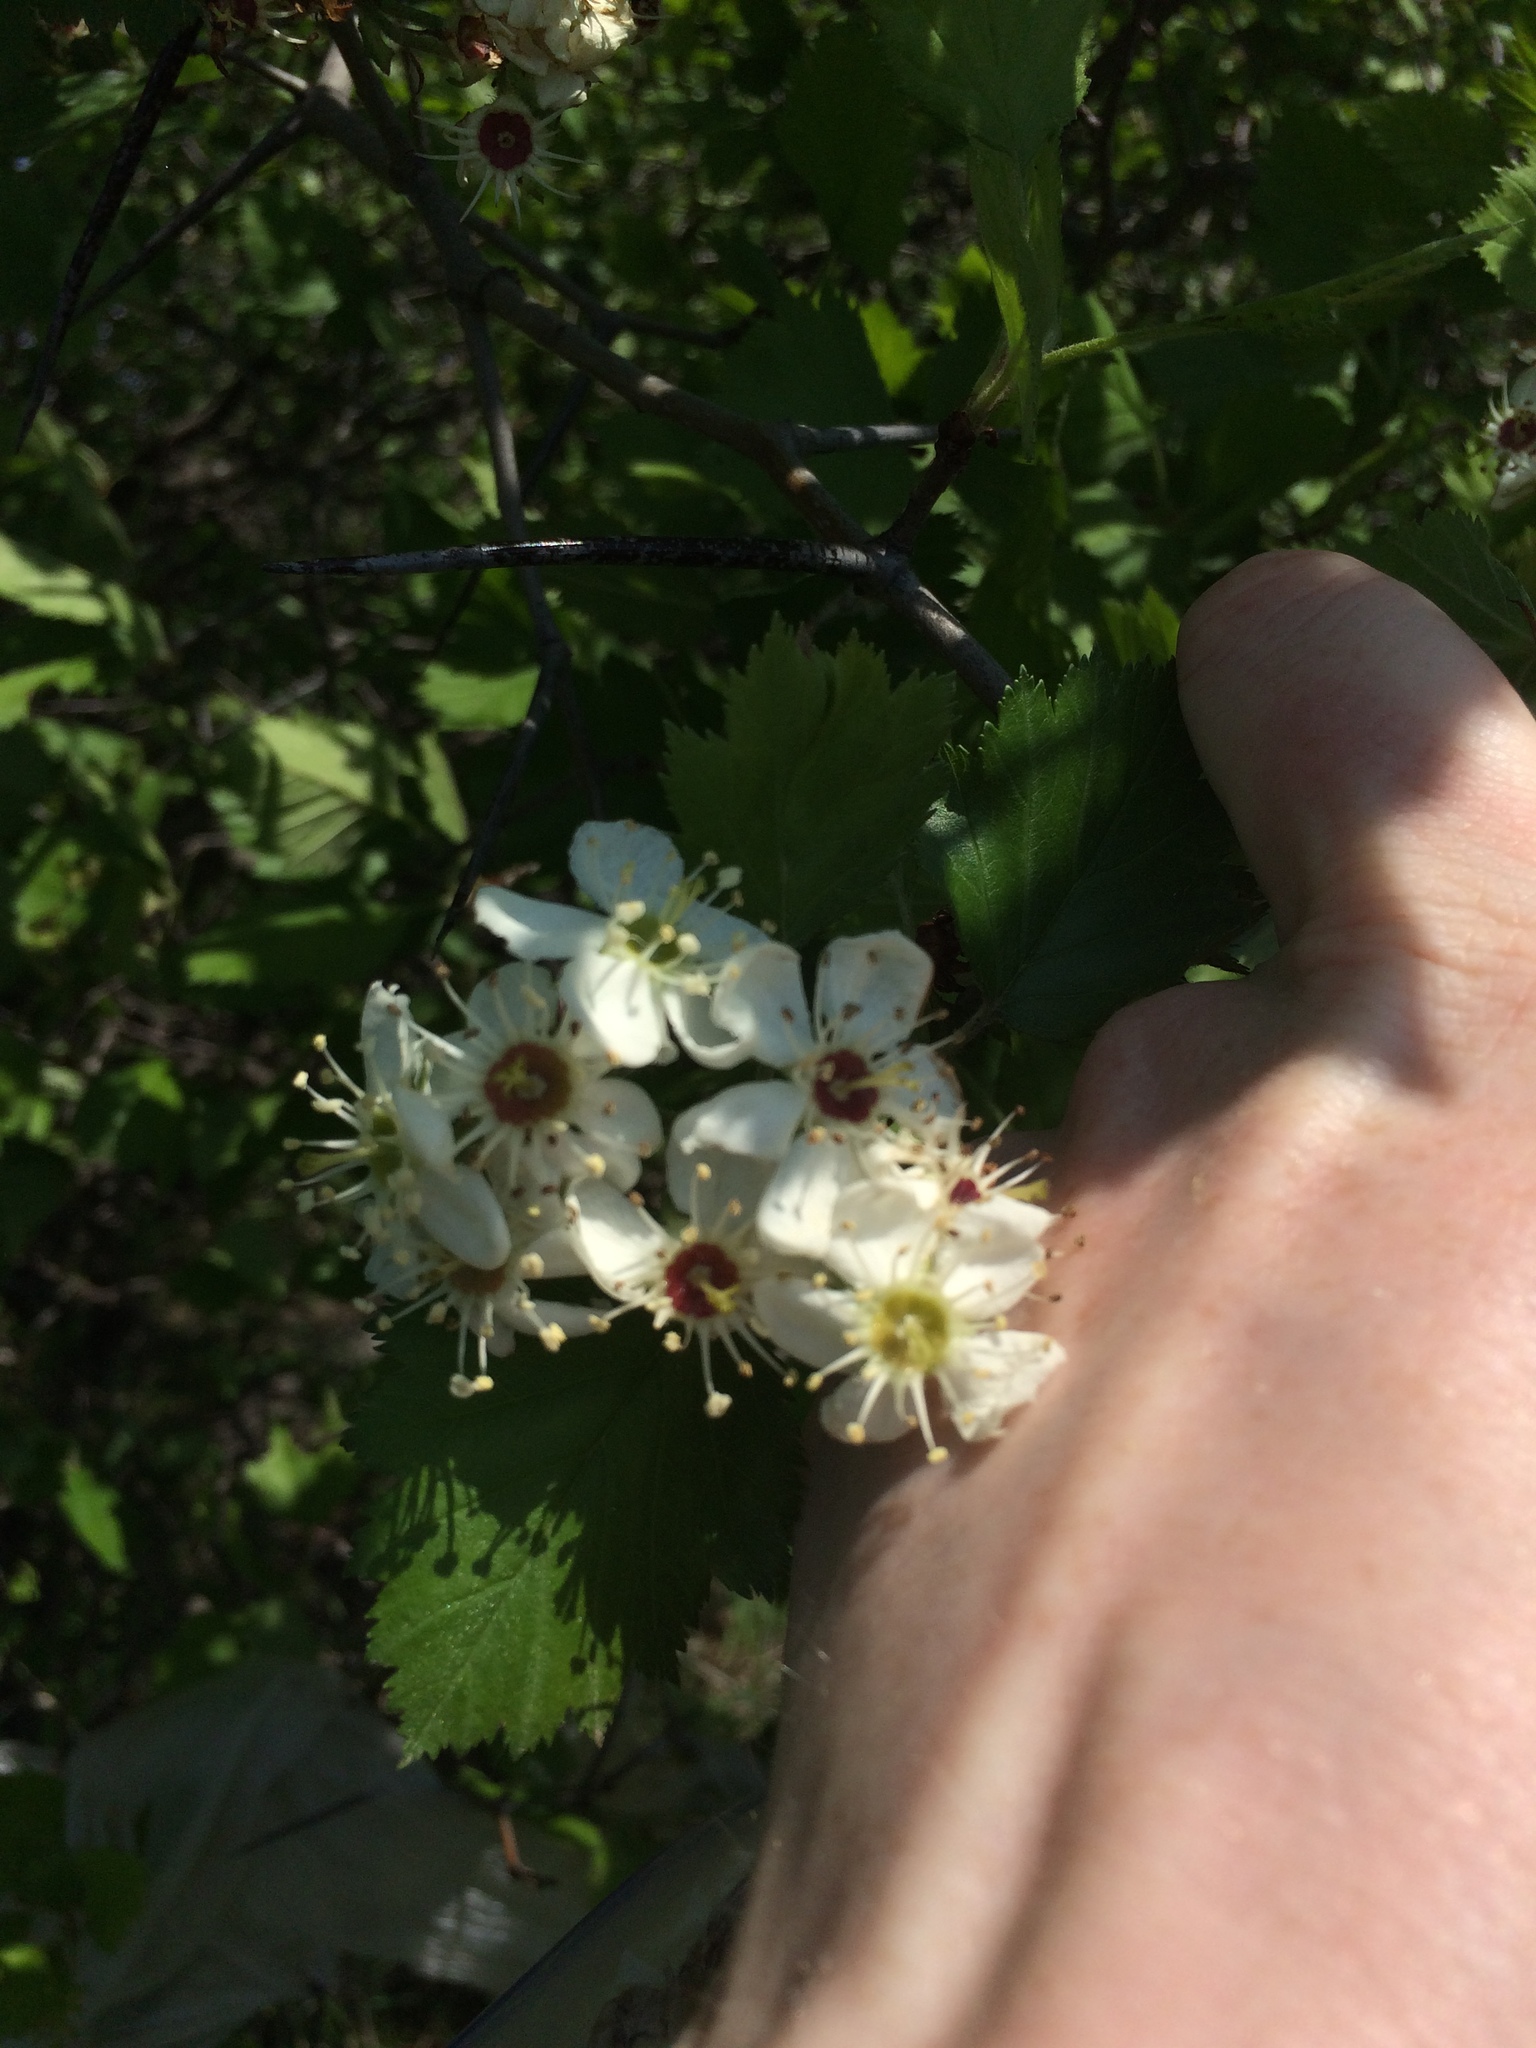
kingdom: Plantae
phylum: Tracheophyta
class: Magnoliopsida
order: Rosales
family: Rosaceae
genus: Crataegus
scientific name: Crataegus submollis
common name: Hairy cockspurthorn
